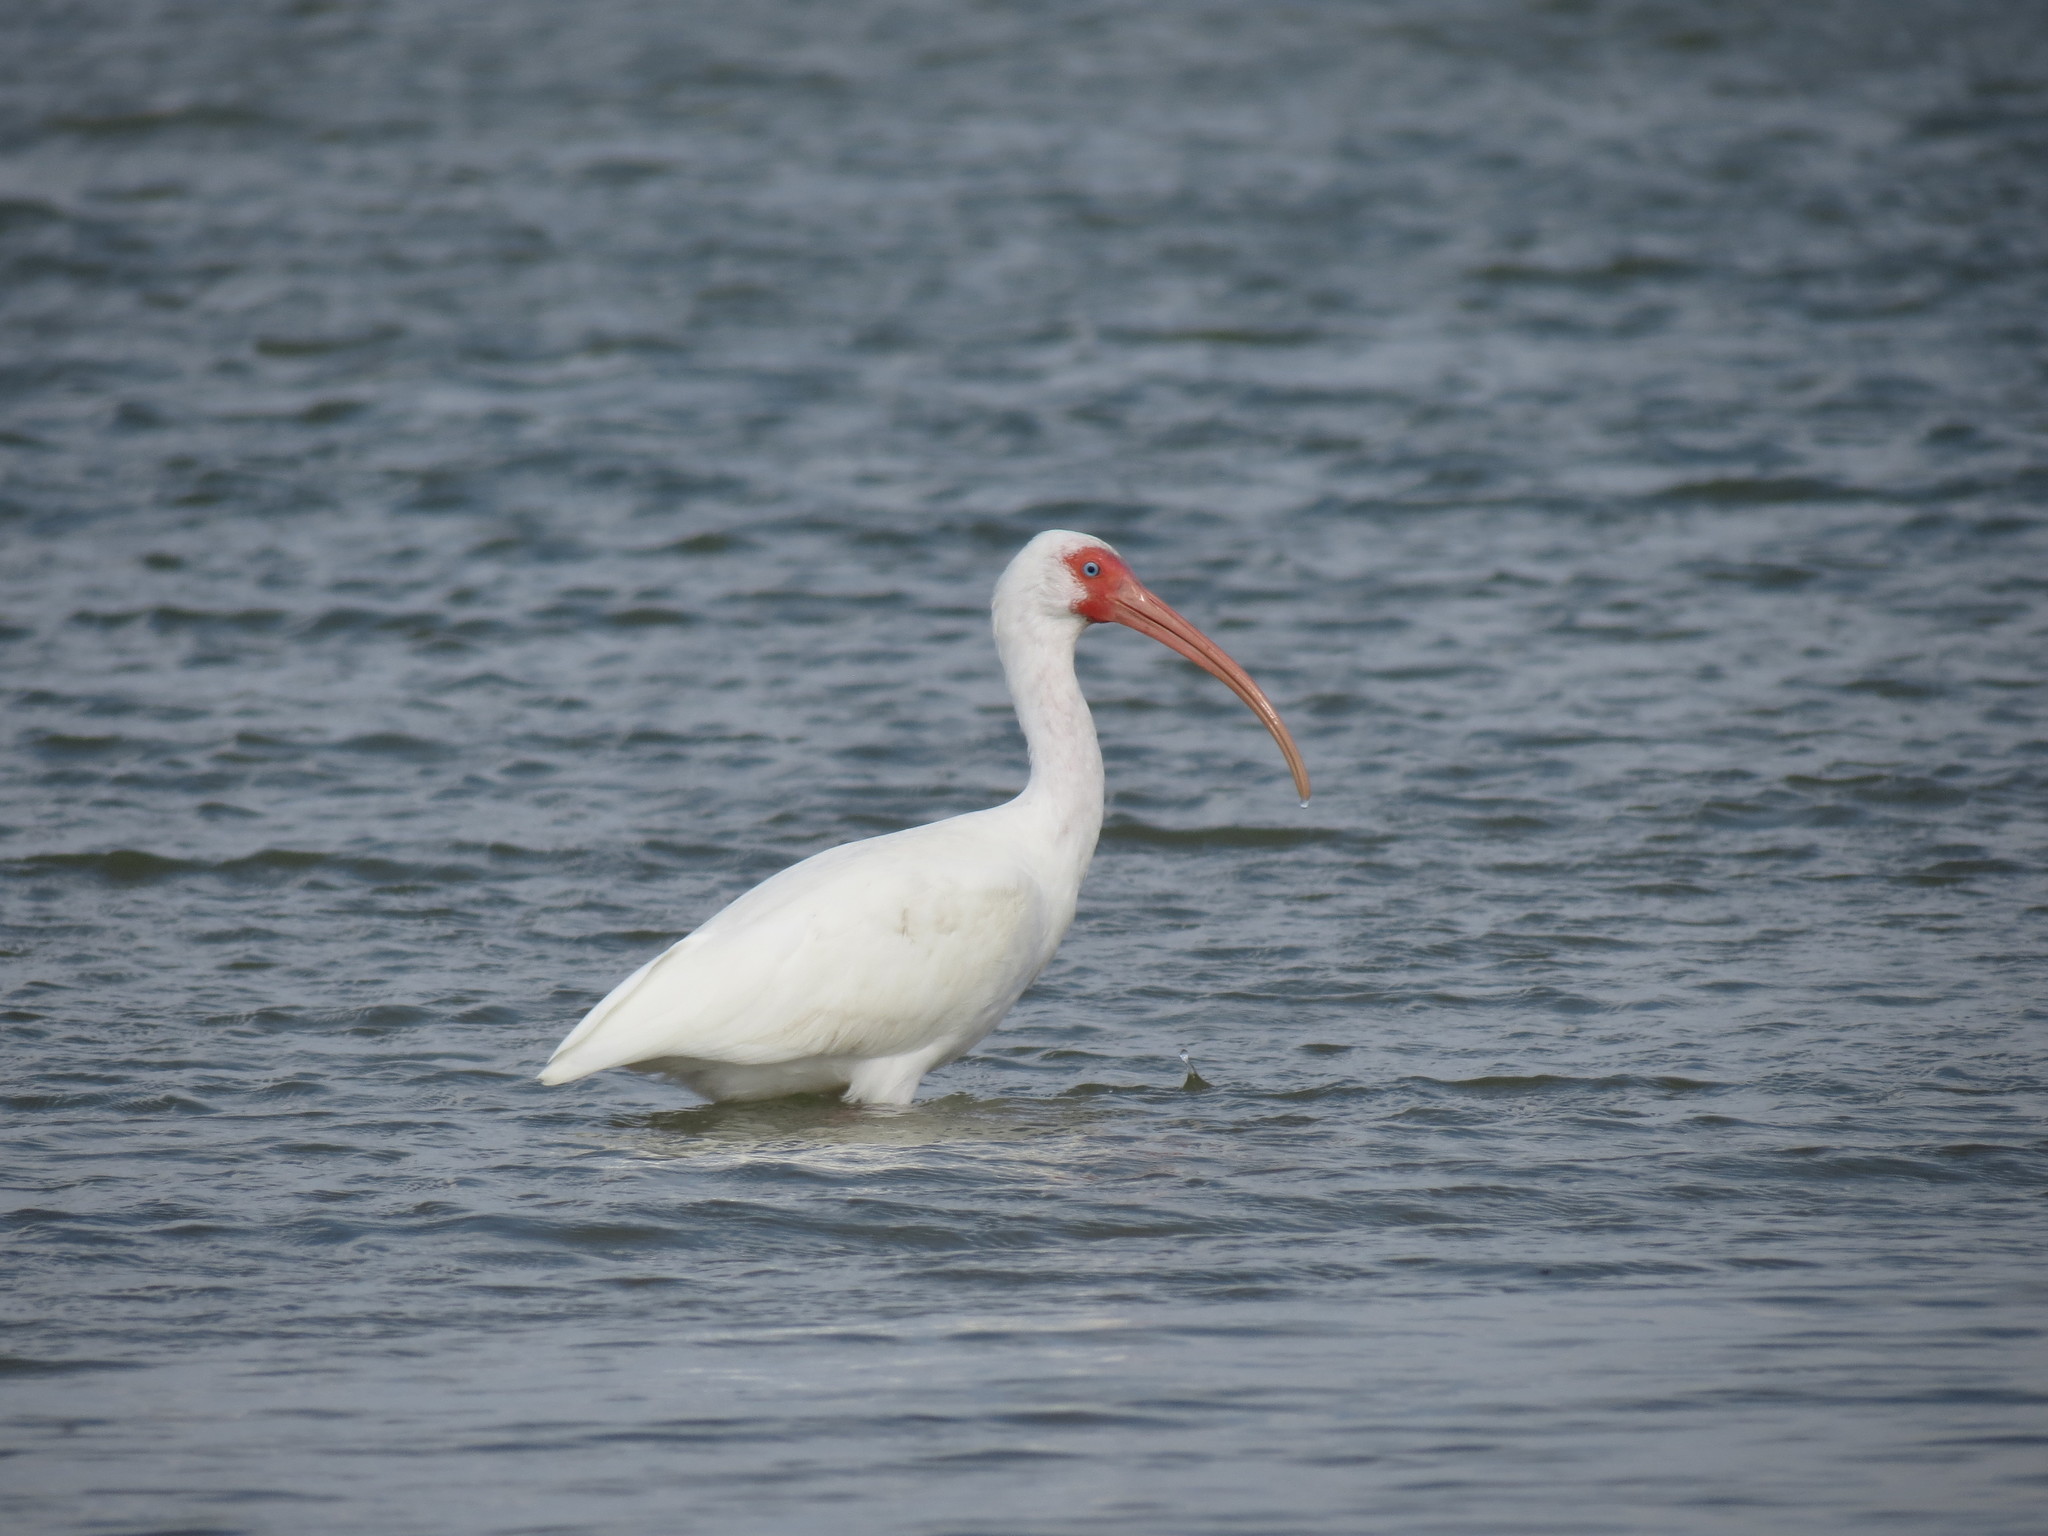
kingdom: Animalia
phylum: Chordata
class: Aves
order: Pelecaniformes
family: Threskiornithidae
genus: Eudocimus
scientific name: Eudocimus albus
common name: White ibis
